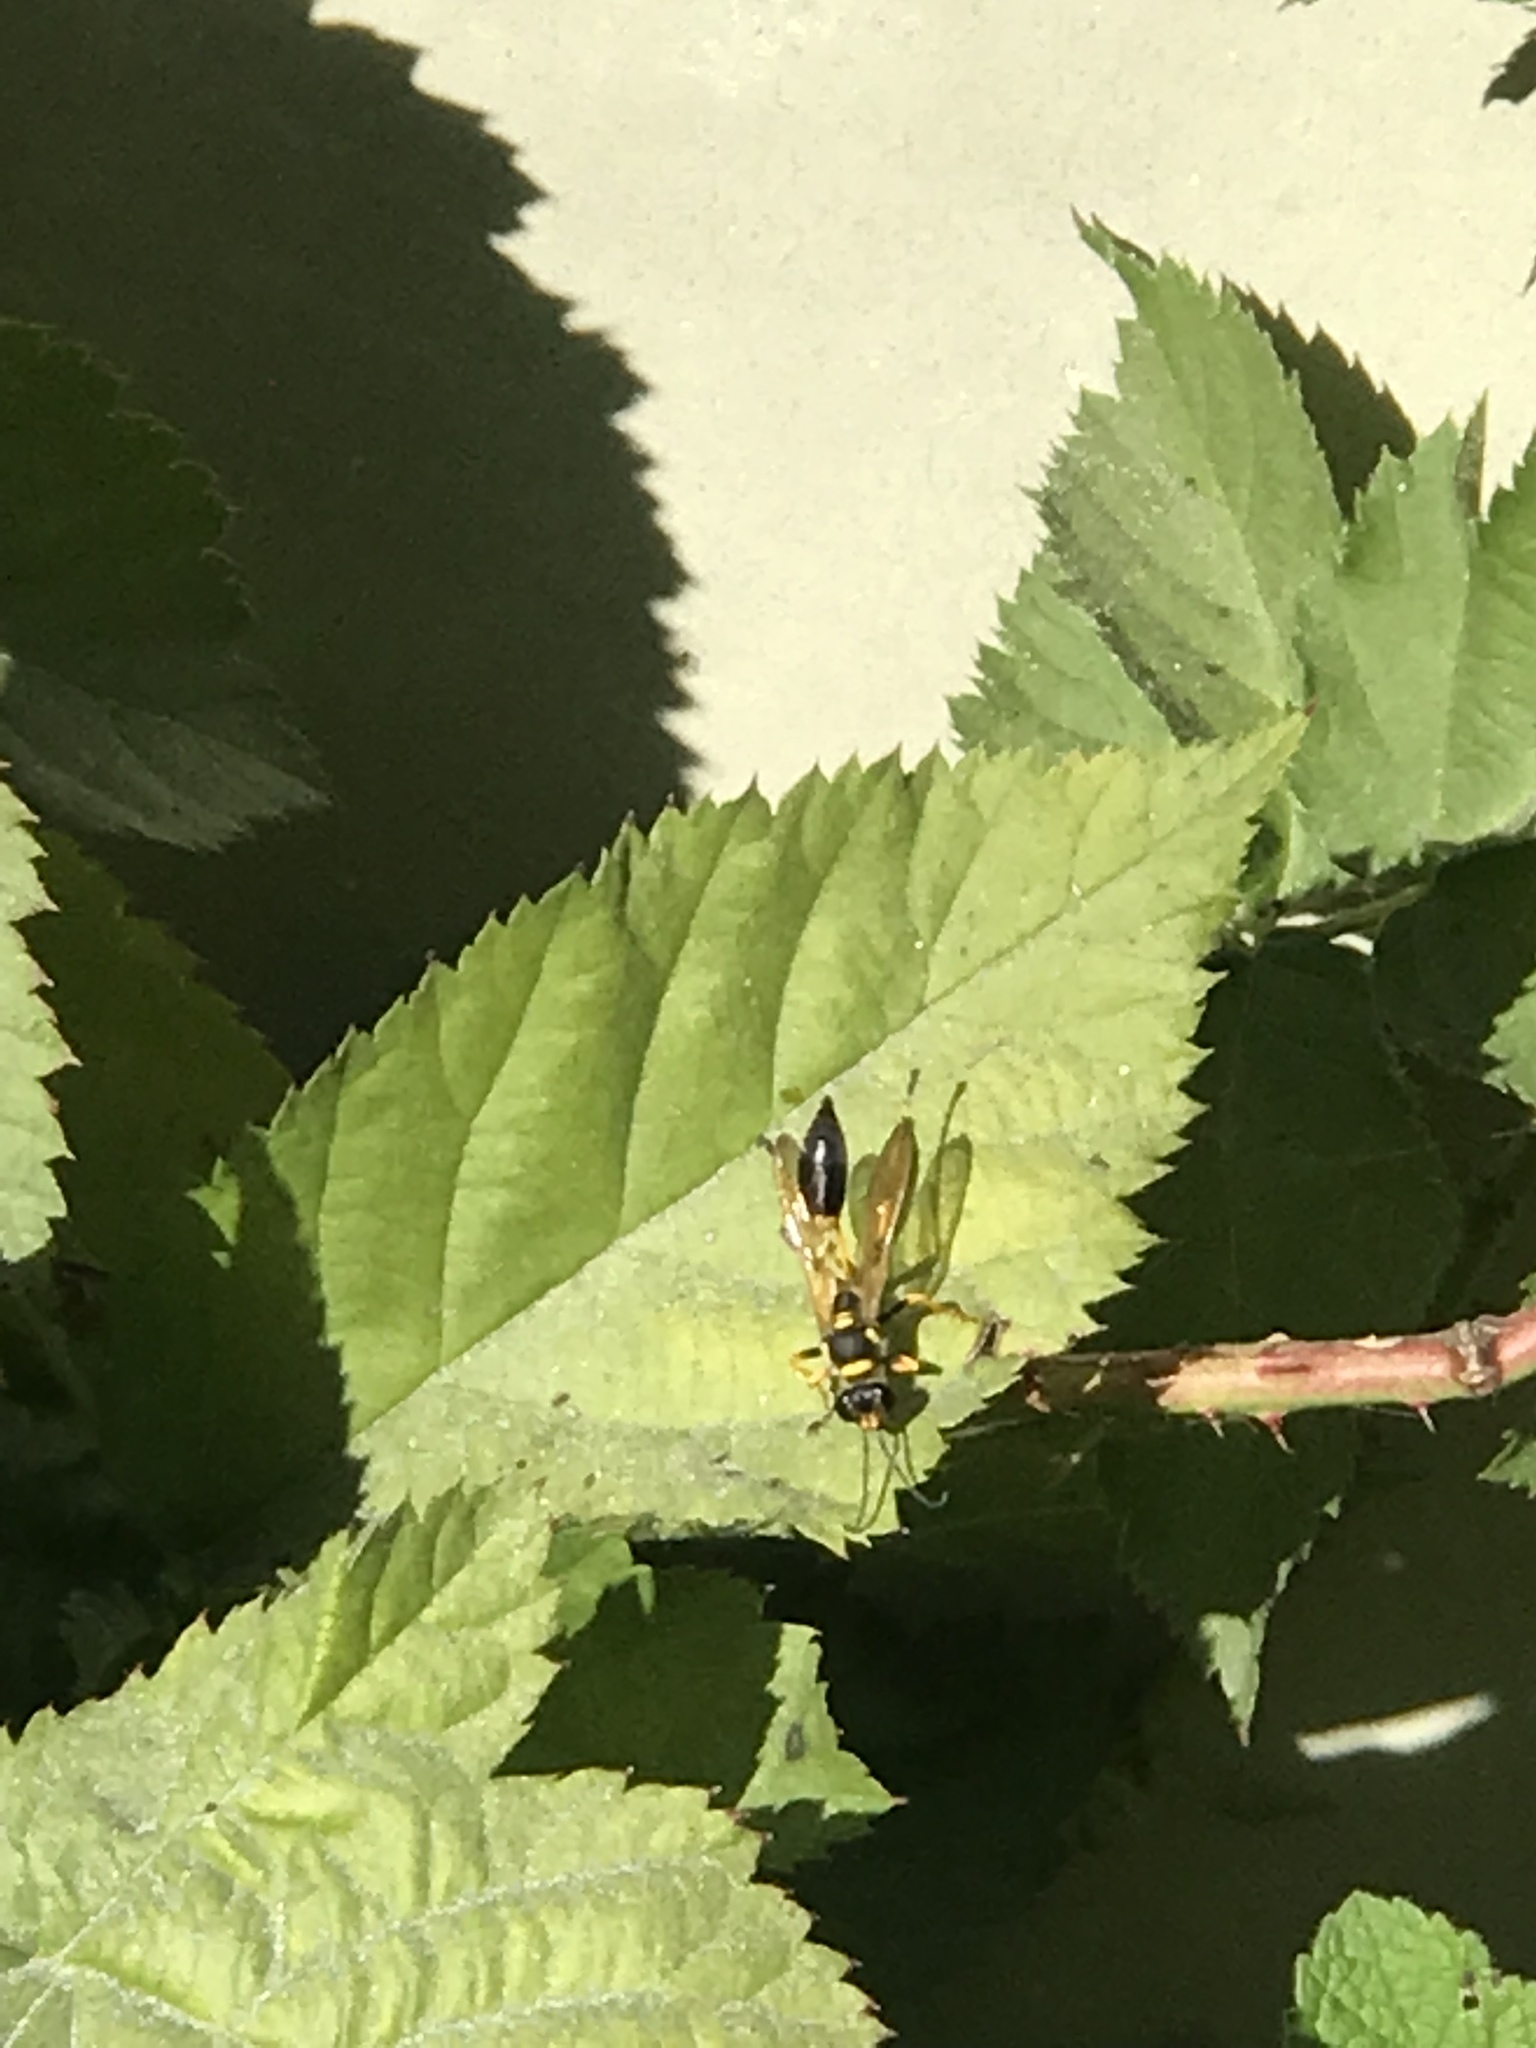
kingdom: Animalia
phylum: Arthropoda
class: Insecta
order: Hymenoptera
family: Sphecidae
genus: Sceliphron
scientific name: Sceliphron caementarium
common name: Mud dauber
